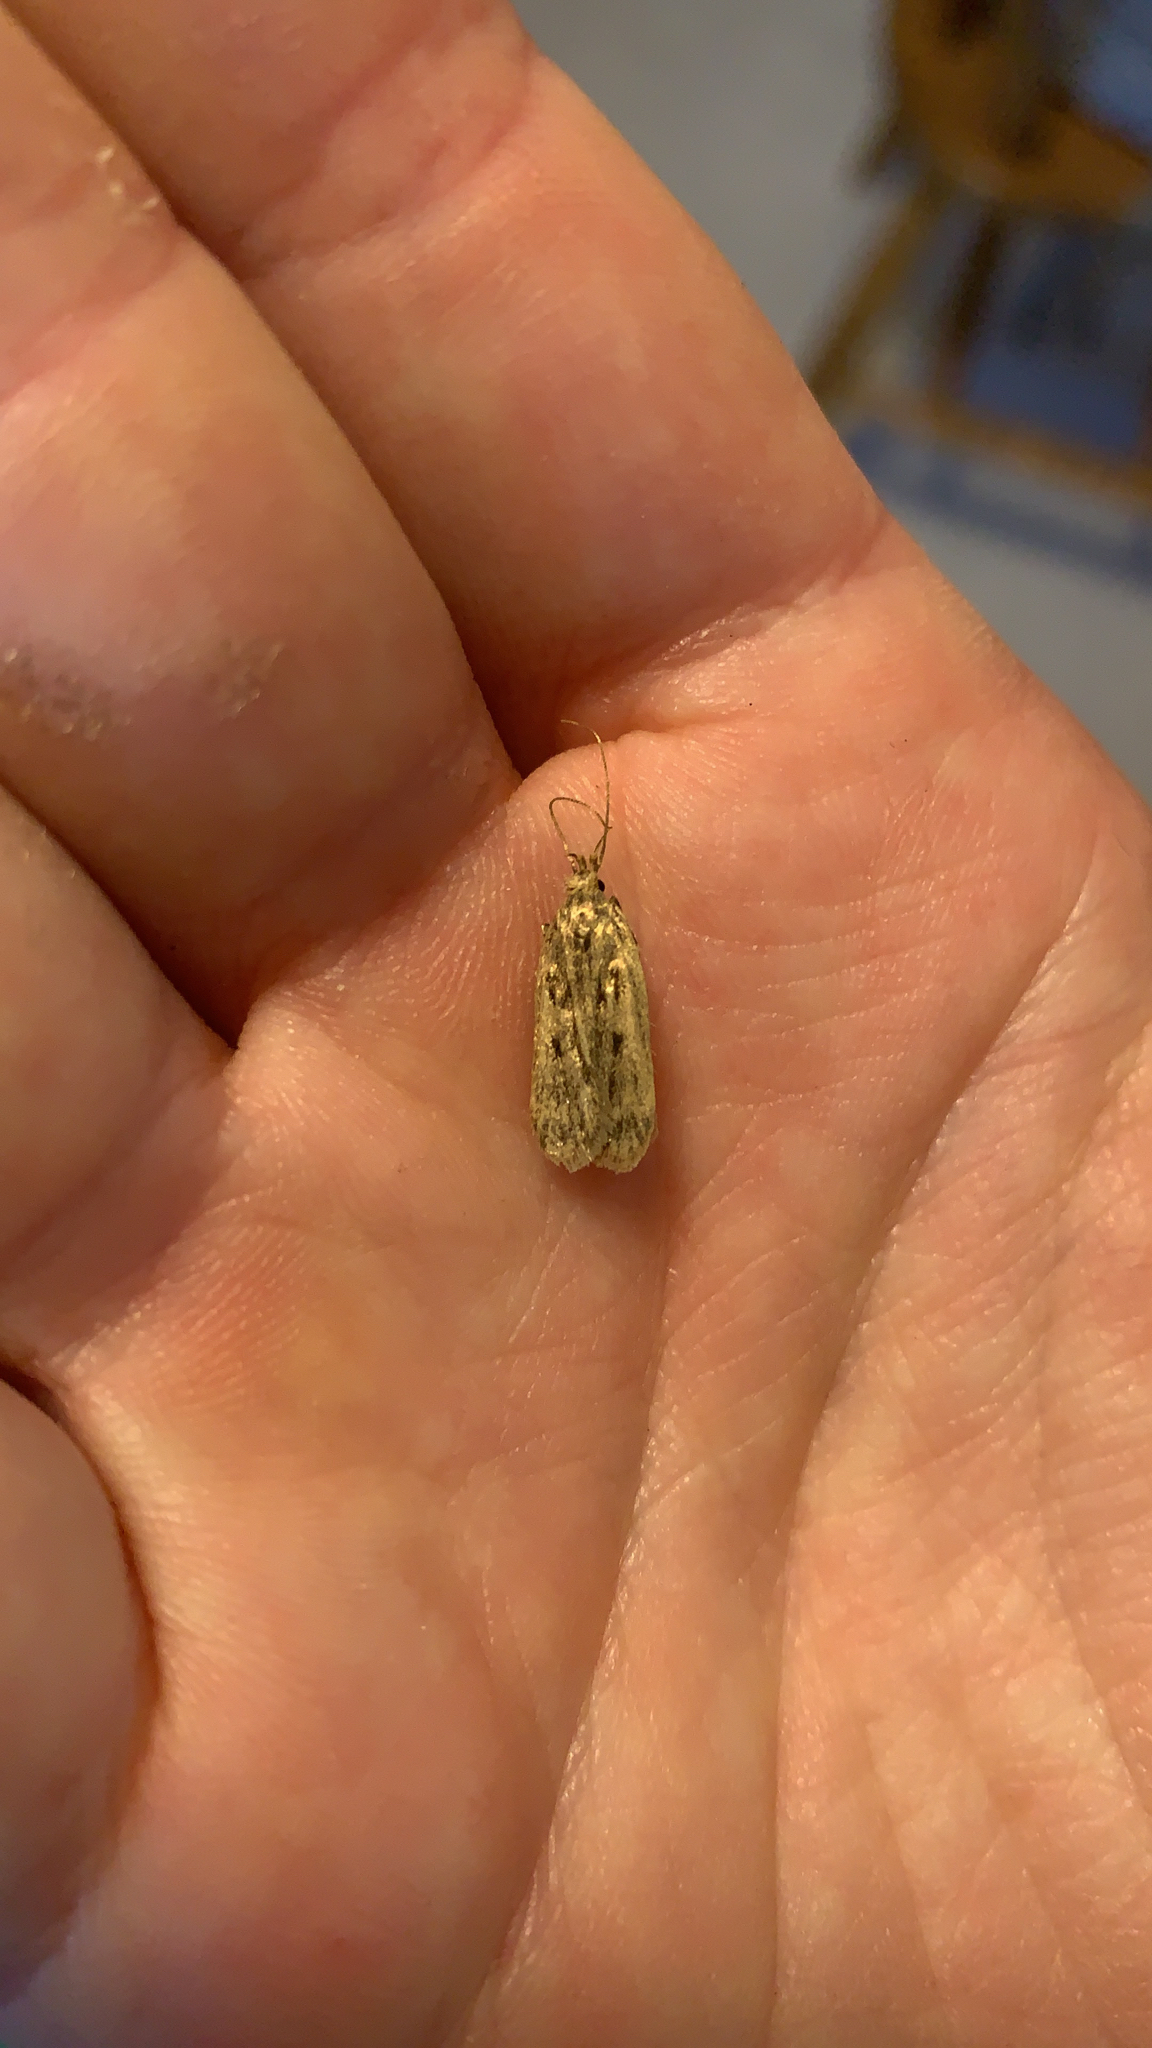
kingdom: Animalia
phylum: Arthropoda
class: Insecta
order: Lepidoptera
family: Lecithoceridae
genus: Martyringa
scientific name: Martyringa latipennis
